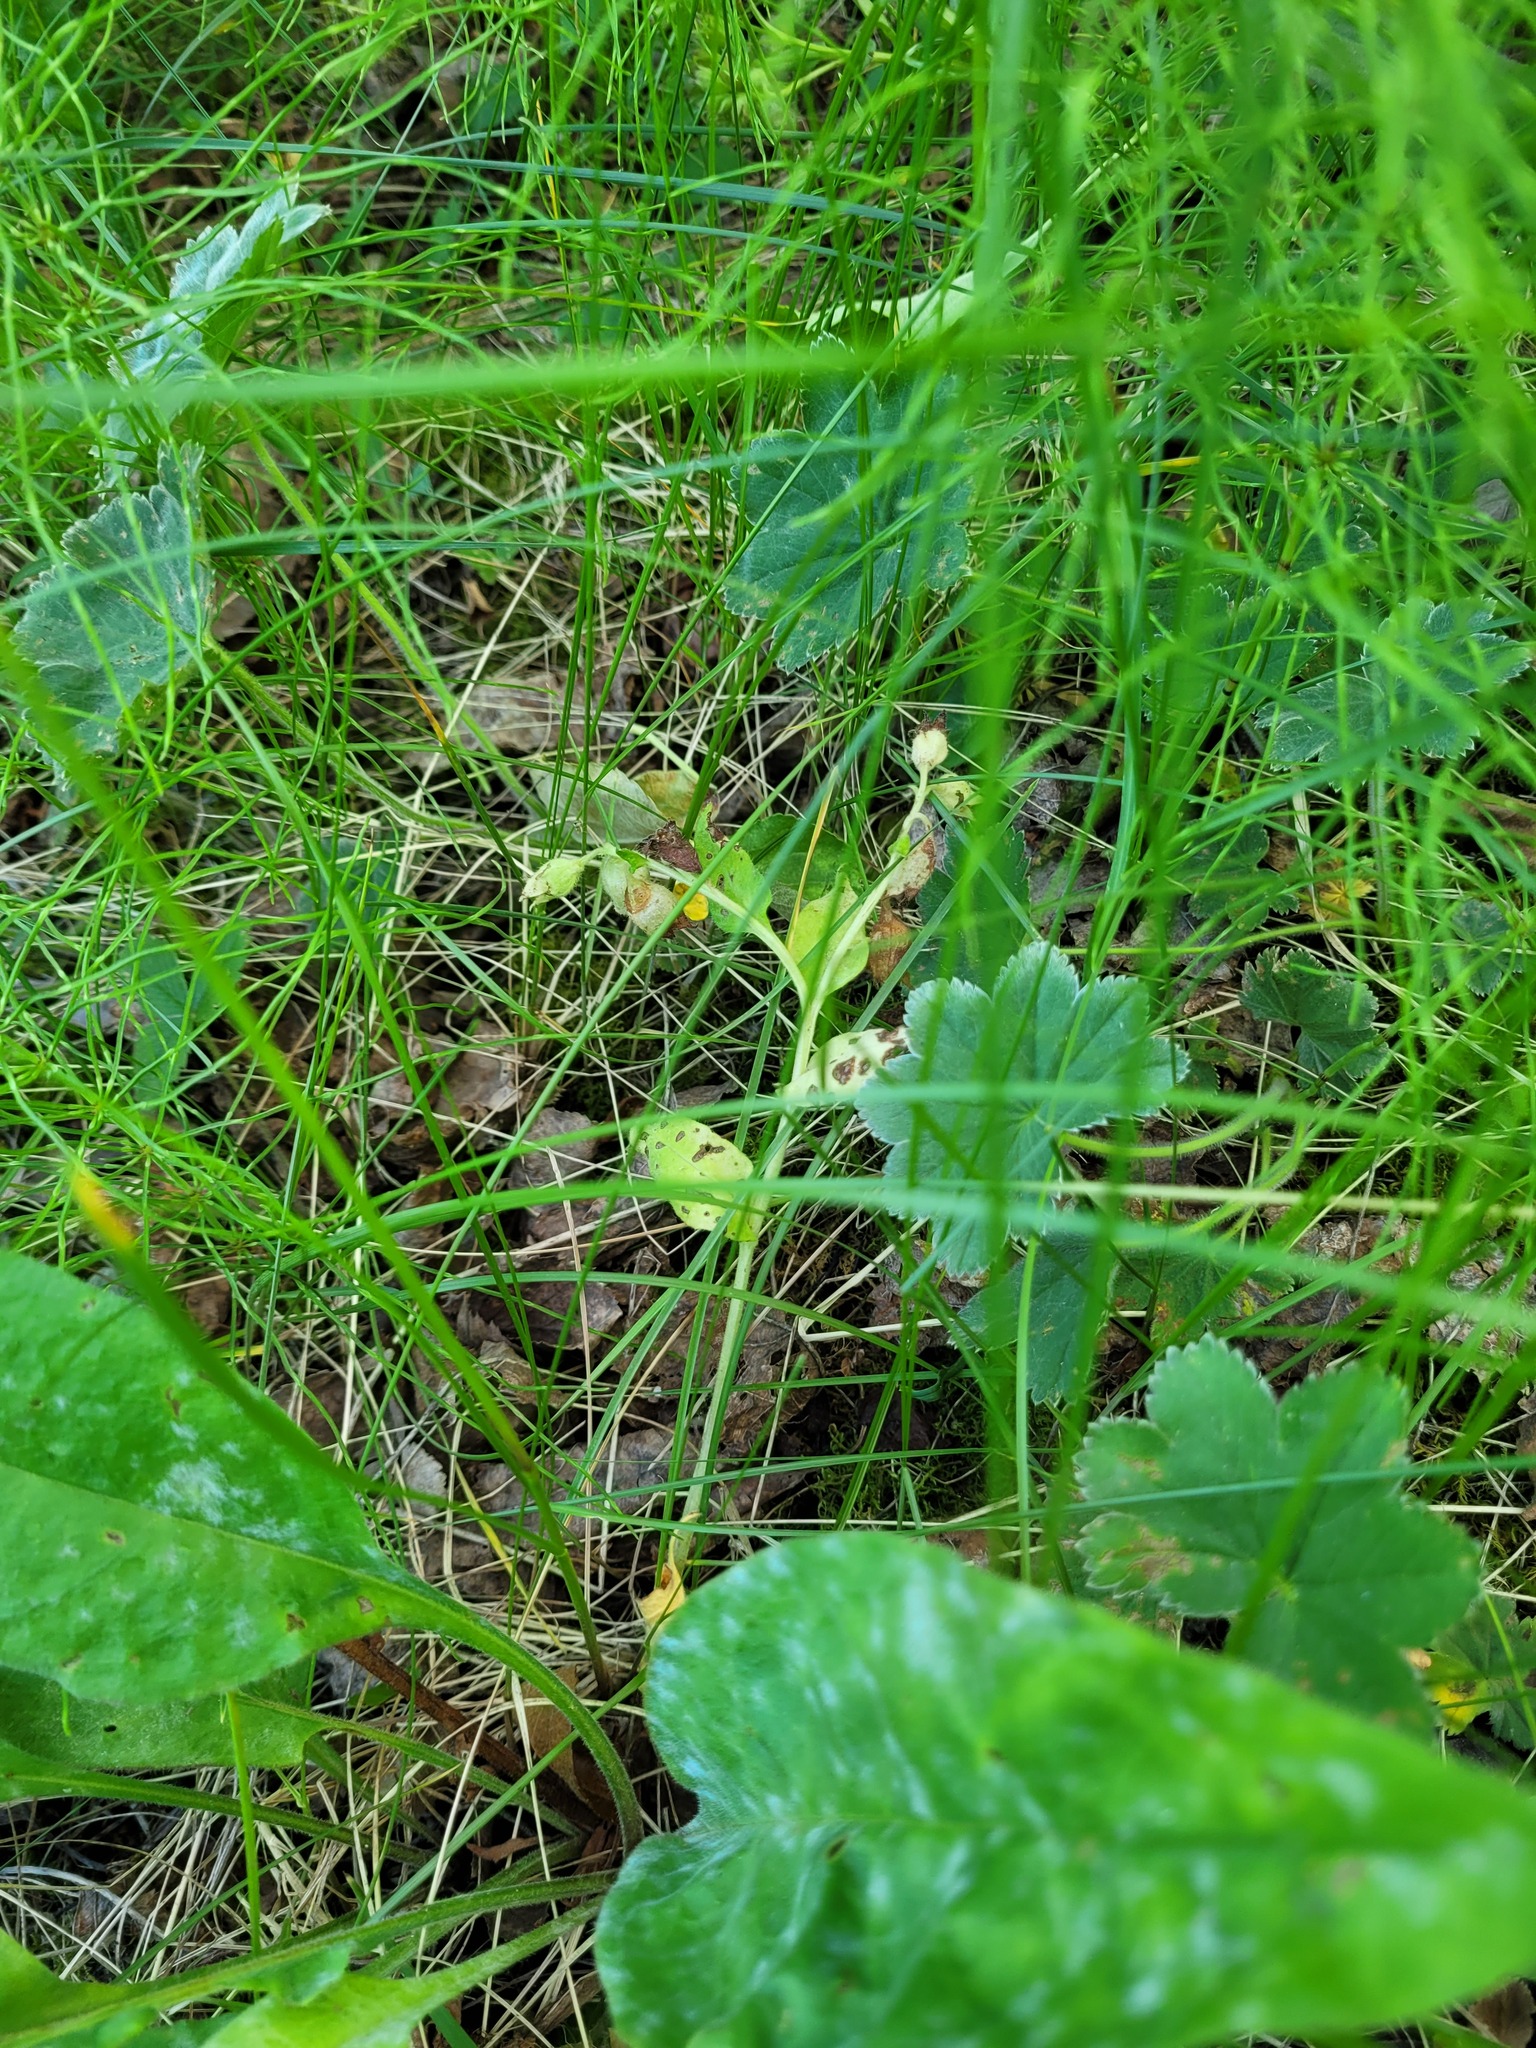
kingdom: Plantae
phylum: Tracheophyta
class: Magnoliopsida
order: Boraginales
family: Boraginaceae
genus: Pulmonaria
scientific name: Pulmonaria notha
